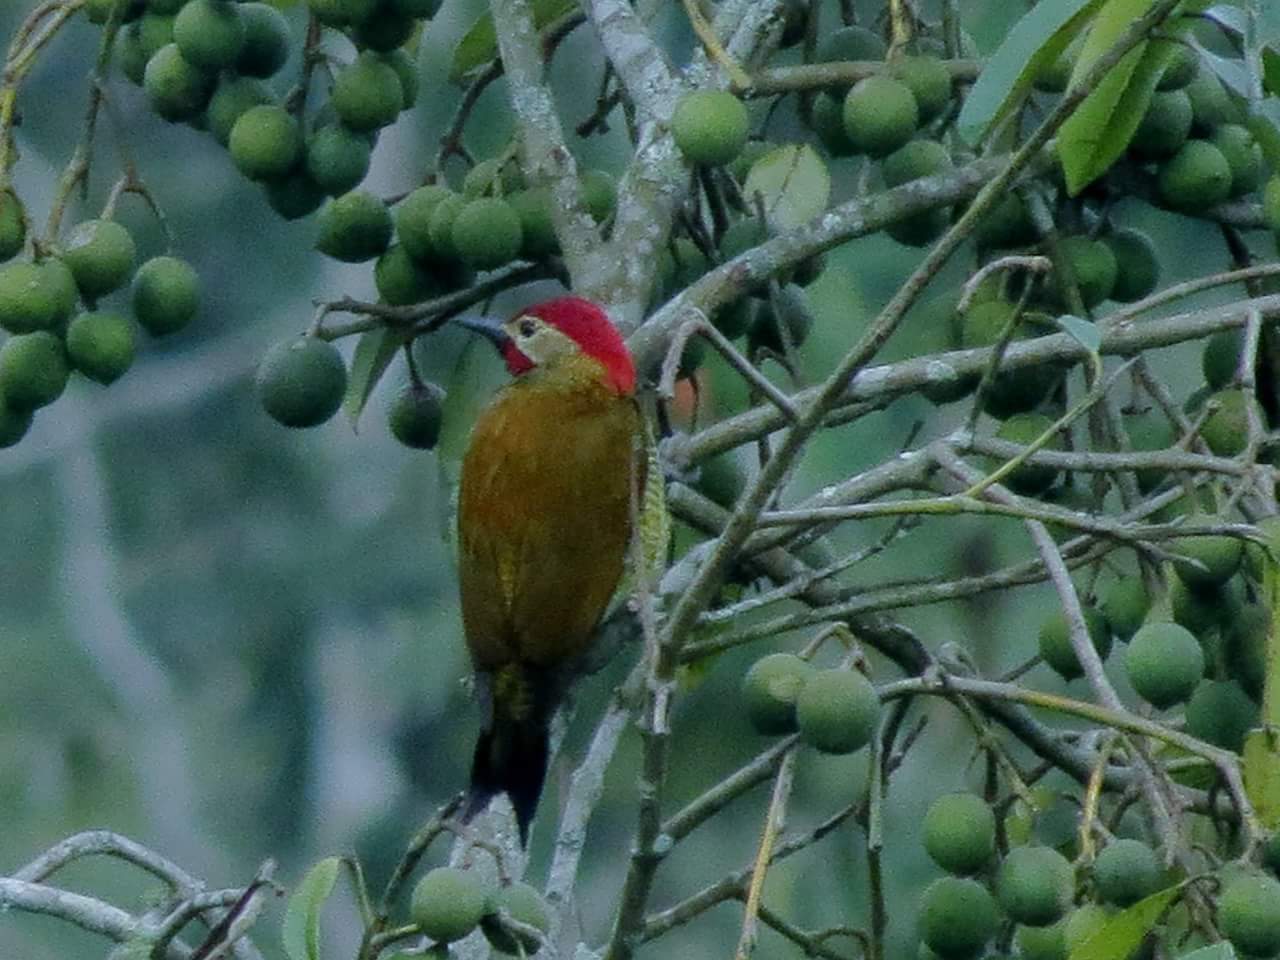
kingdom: Animalia
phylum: Chordata
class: Aves
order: Piciformes
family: Picidae
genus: Colaptes
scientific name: Colaptes rubiginosus
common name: Golden-olive woodpecker
